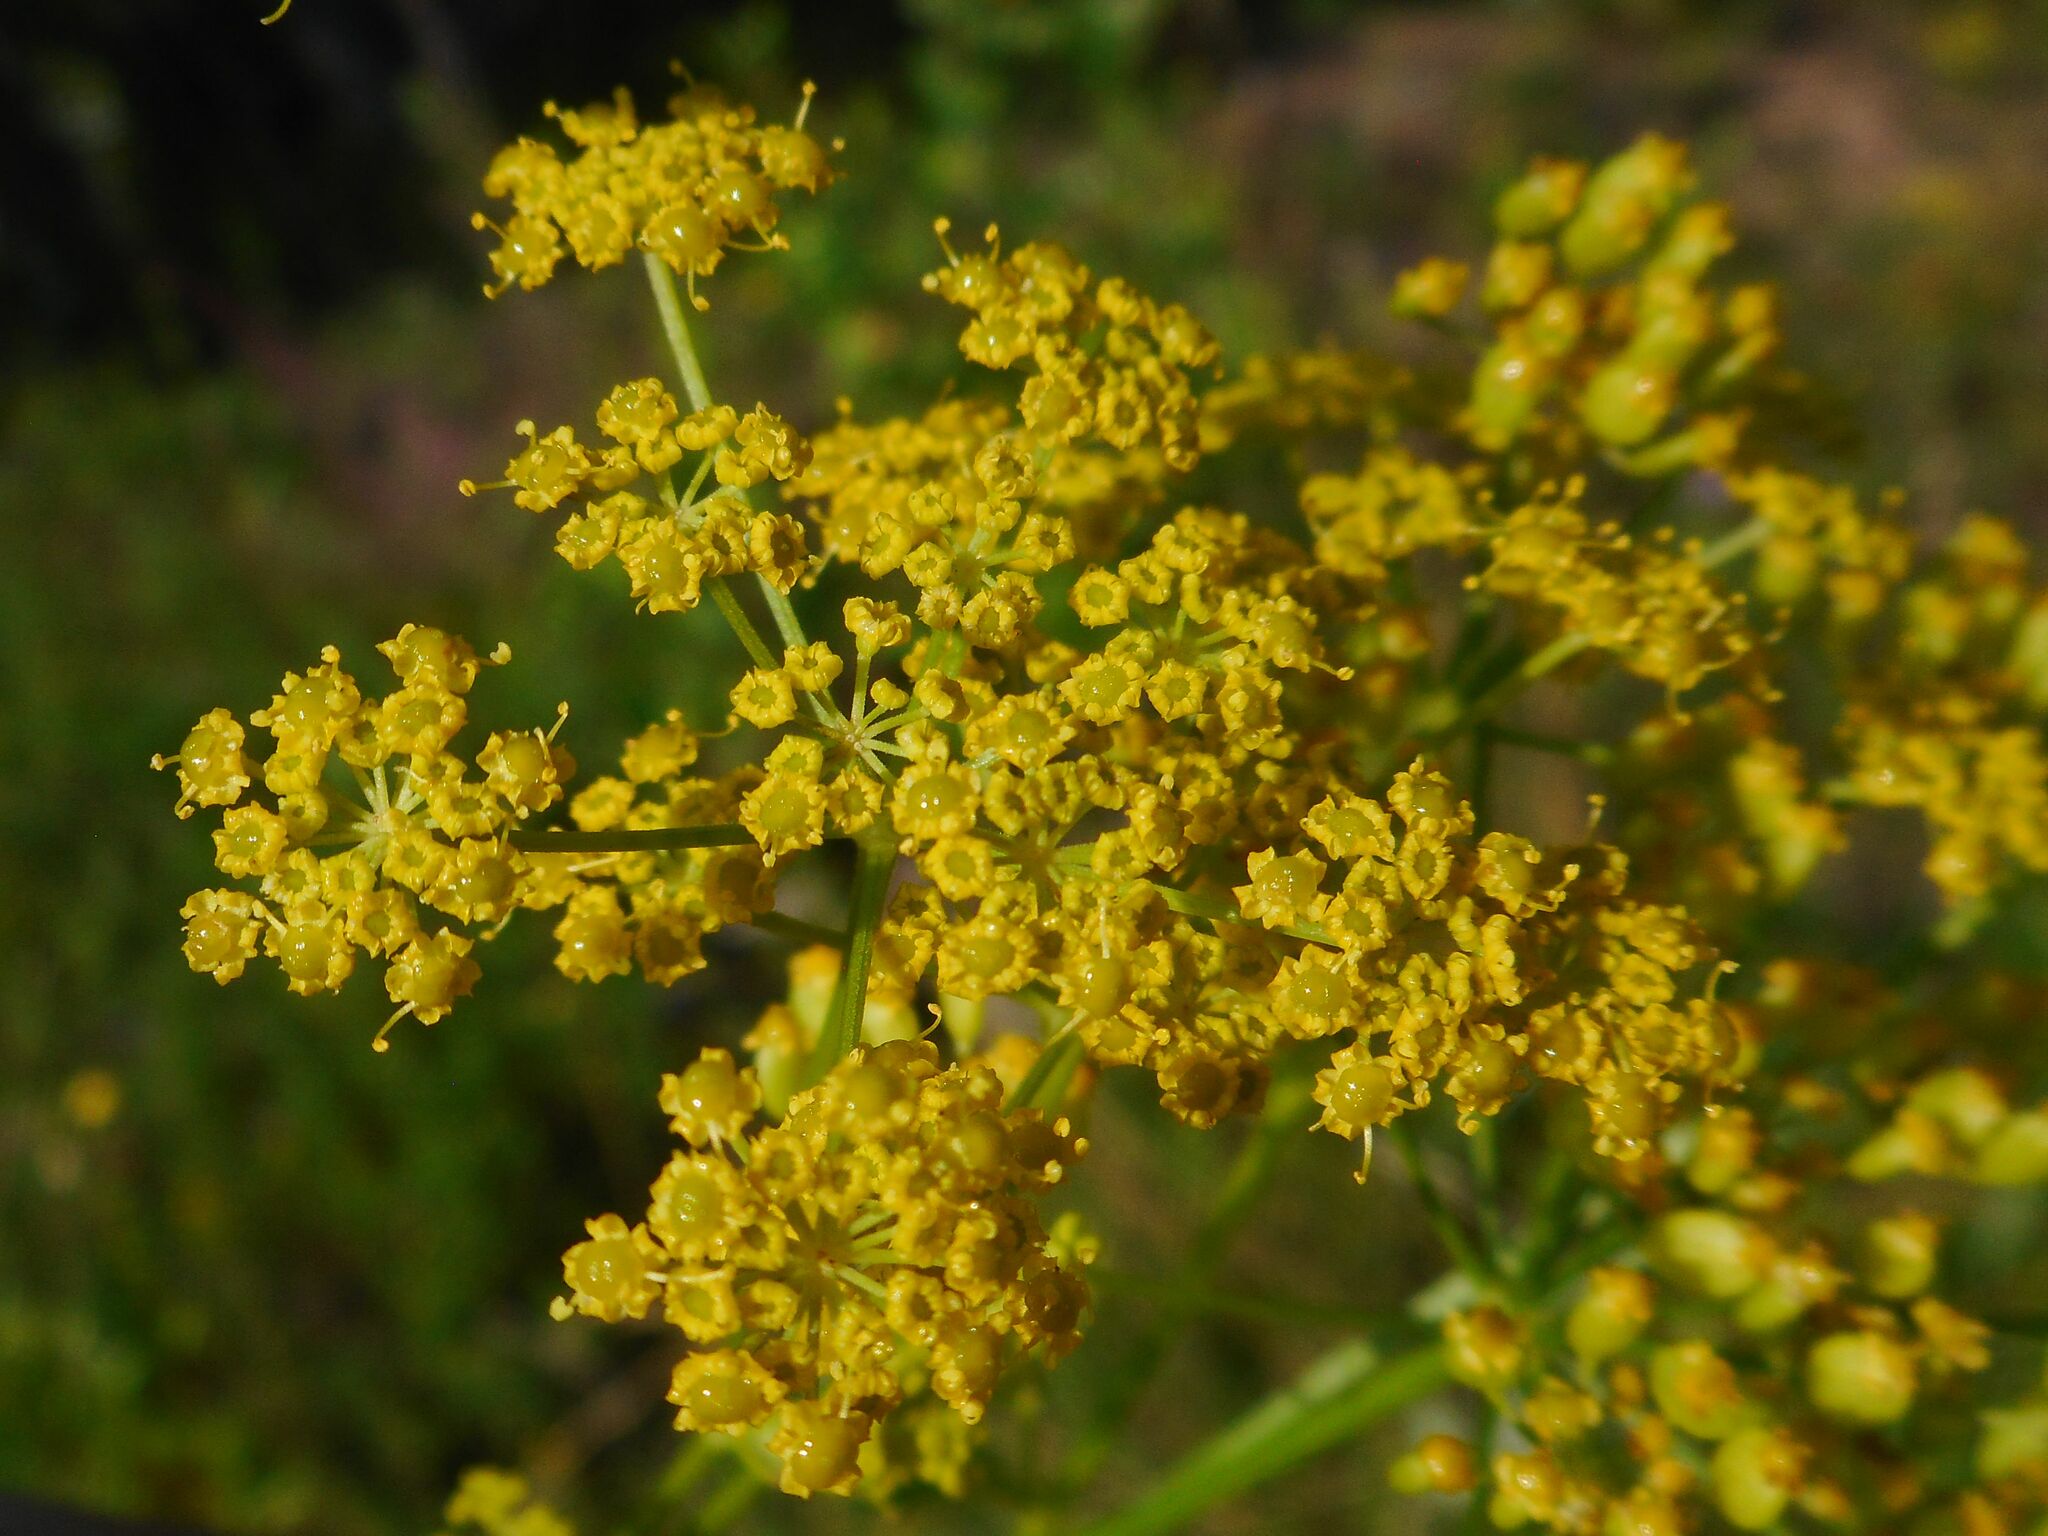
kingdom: Plantae
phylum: Tracheophyta
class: Magnoliopsida
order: Apiales
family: Apiaceae
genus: Pastinaca
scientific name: Pastinaca sativa
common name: Wild parsnip
